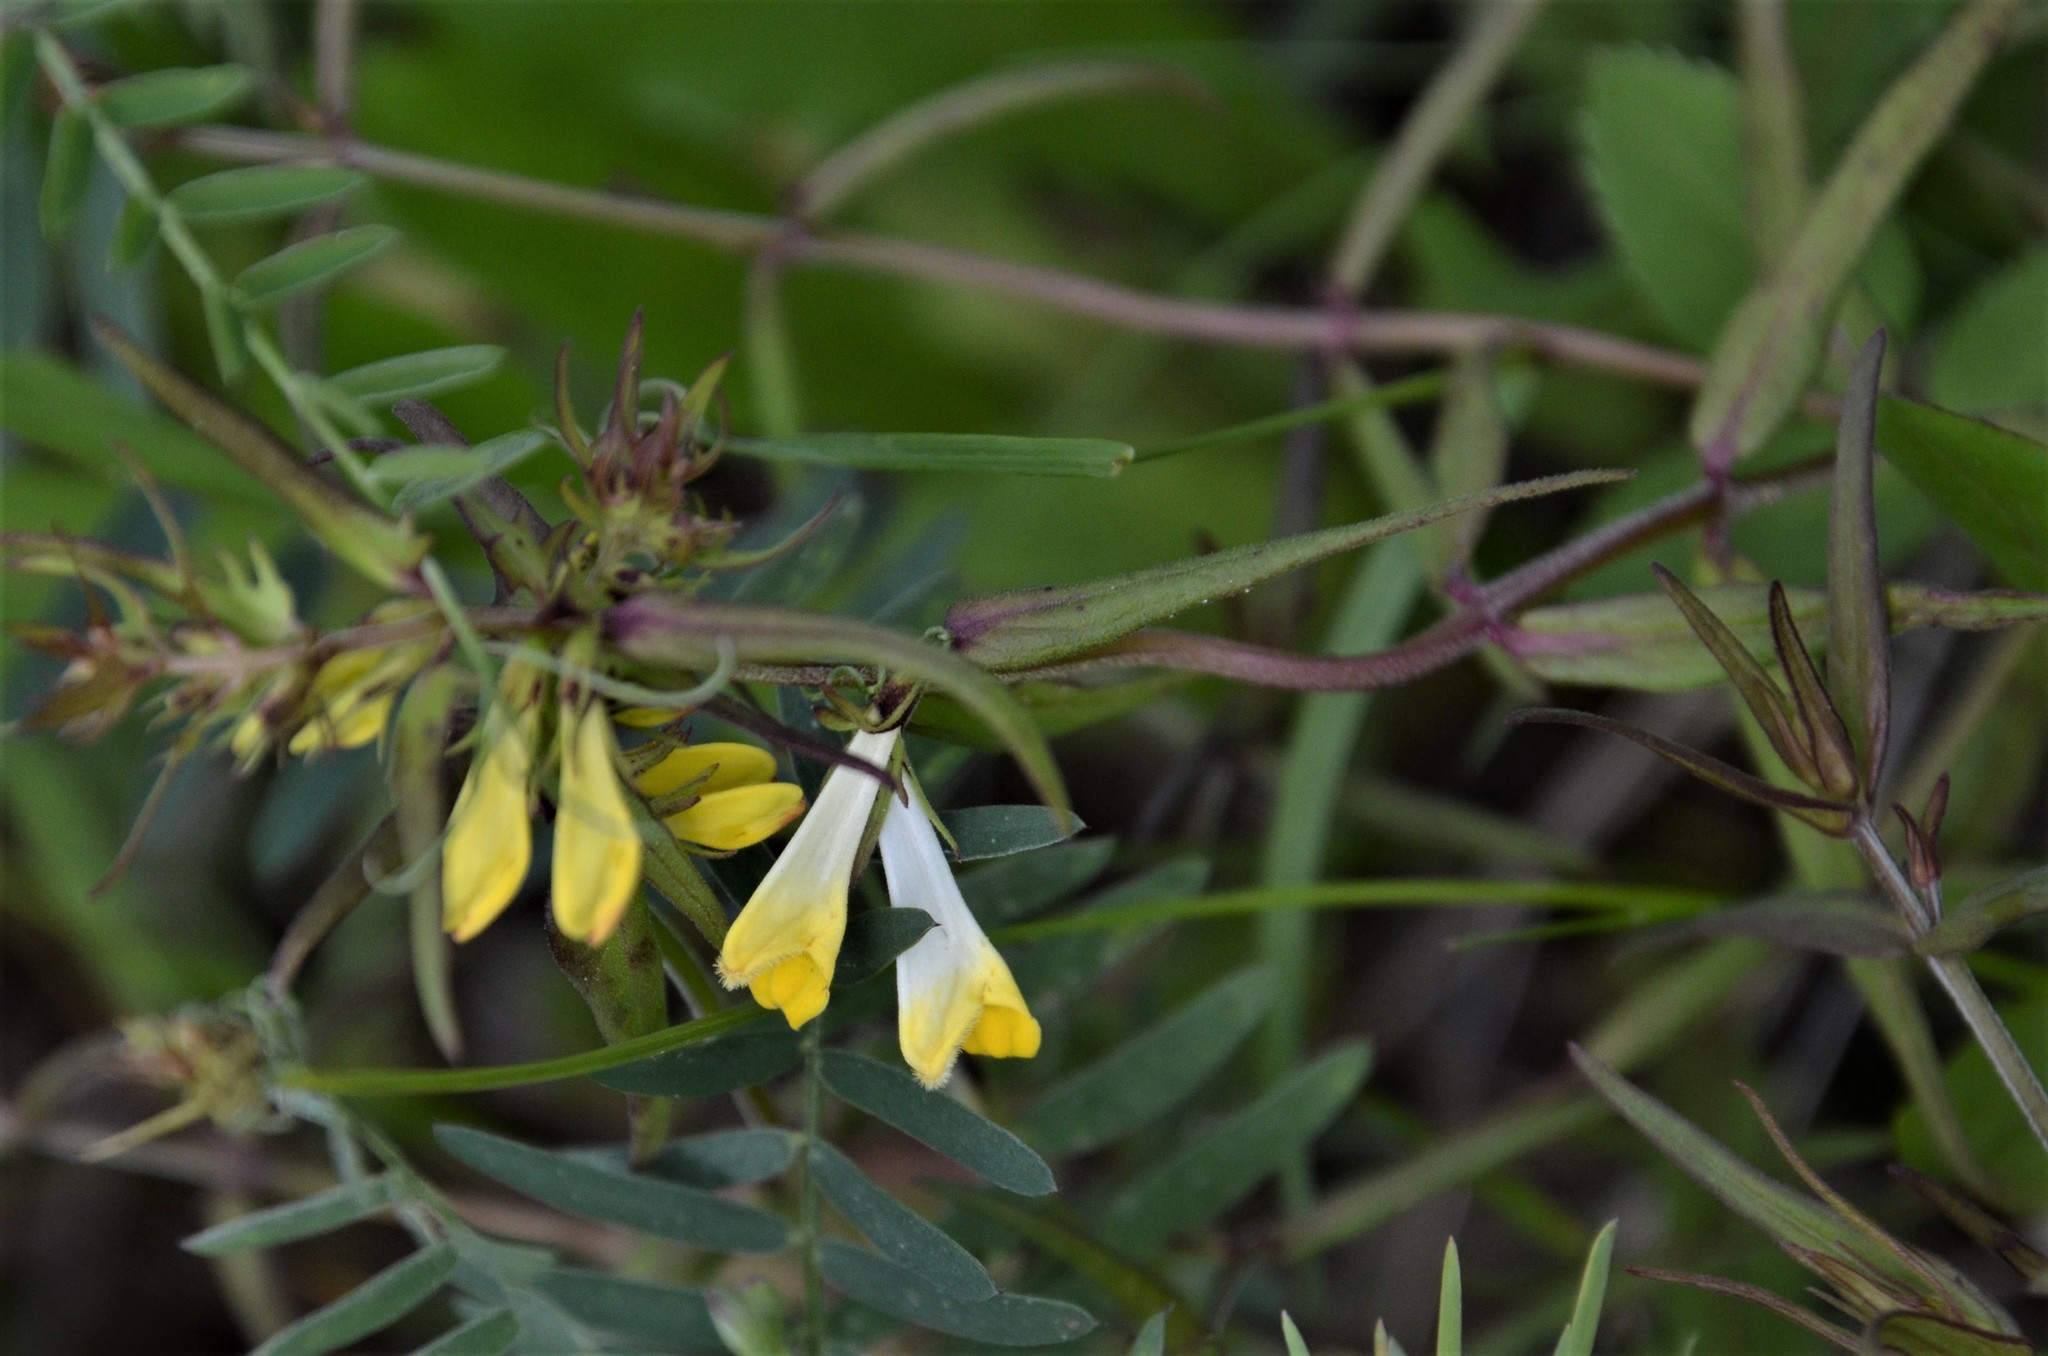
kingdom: Plantae
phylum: Tracheophyta
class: Magnoliopsida
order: Lamiales
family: Orobanchaceae
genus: Melampyrum
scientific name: Melampyrum pratense
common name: Common cow-wheat
